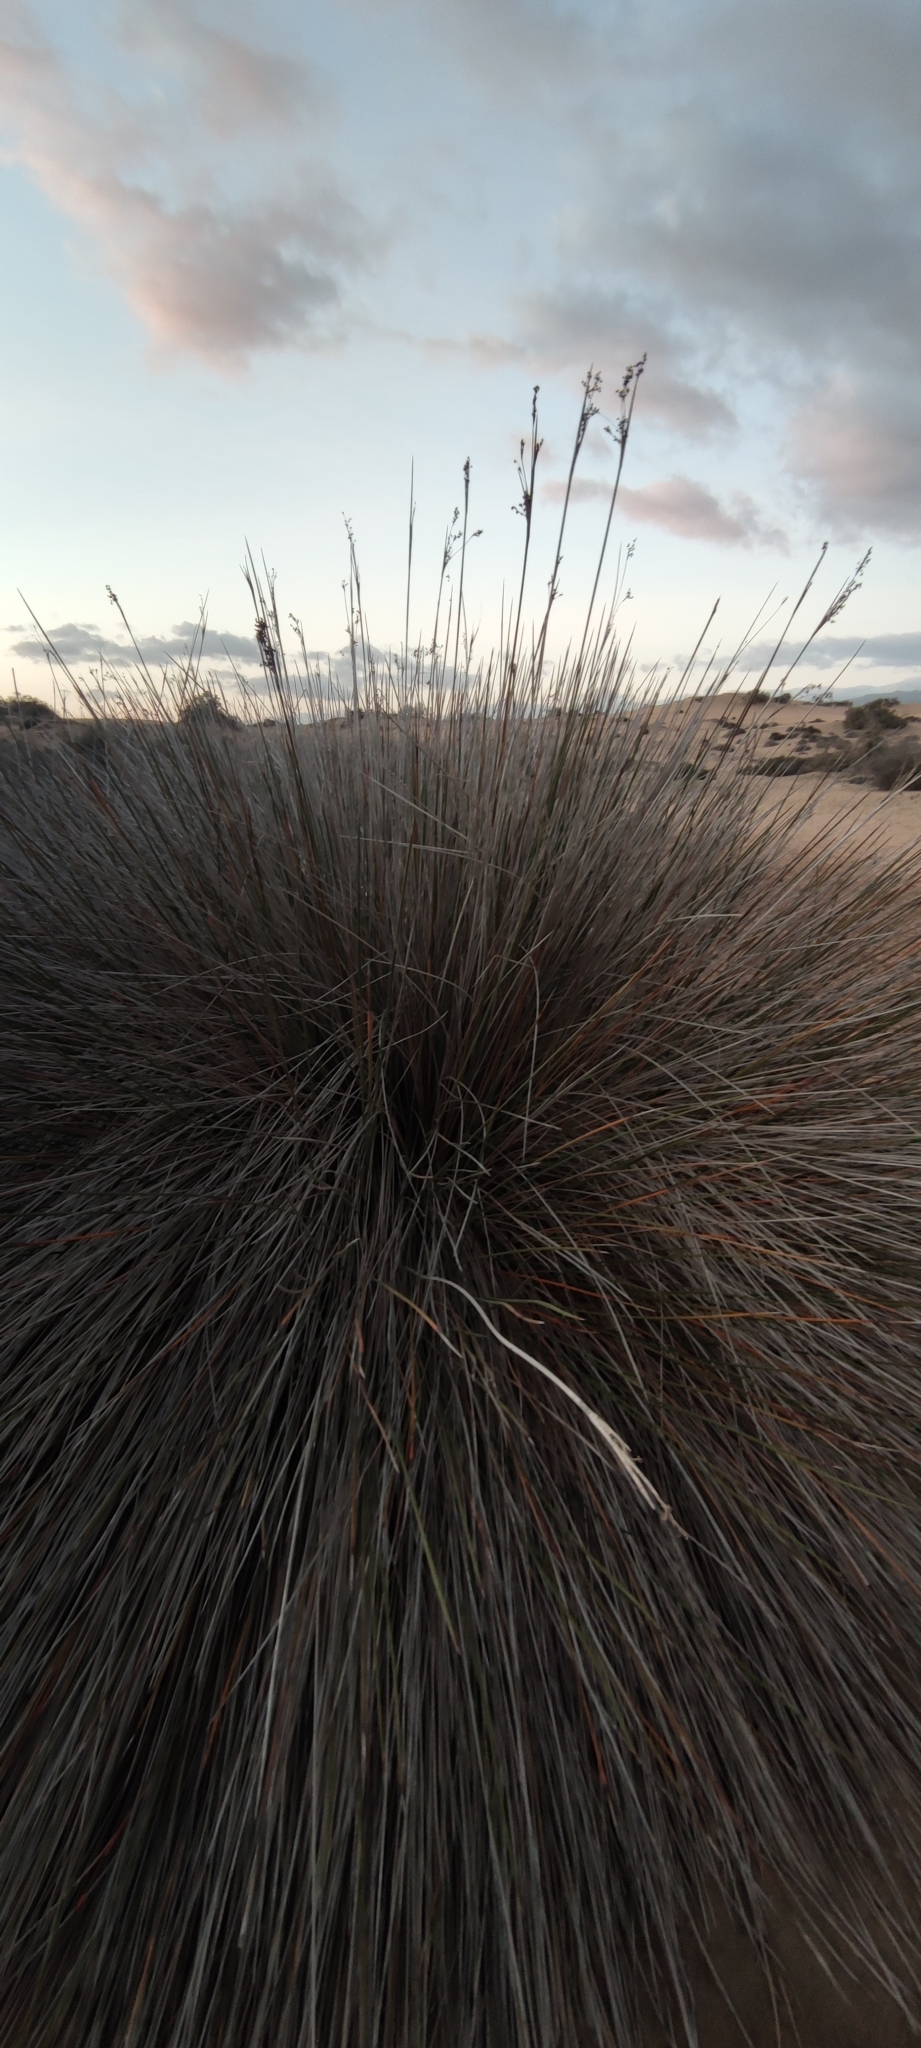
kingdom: Plantae
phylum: Tracheophyta
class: Liliopsida
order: Poales
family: Juncaceae
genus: Juncus
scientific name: Juncus acutus
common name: Sharp rush
